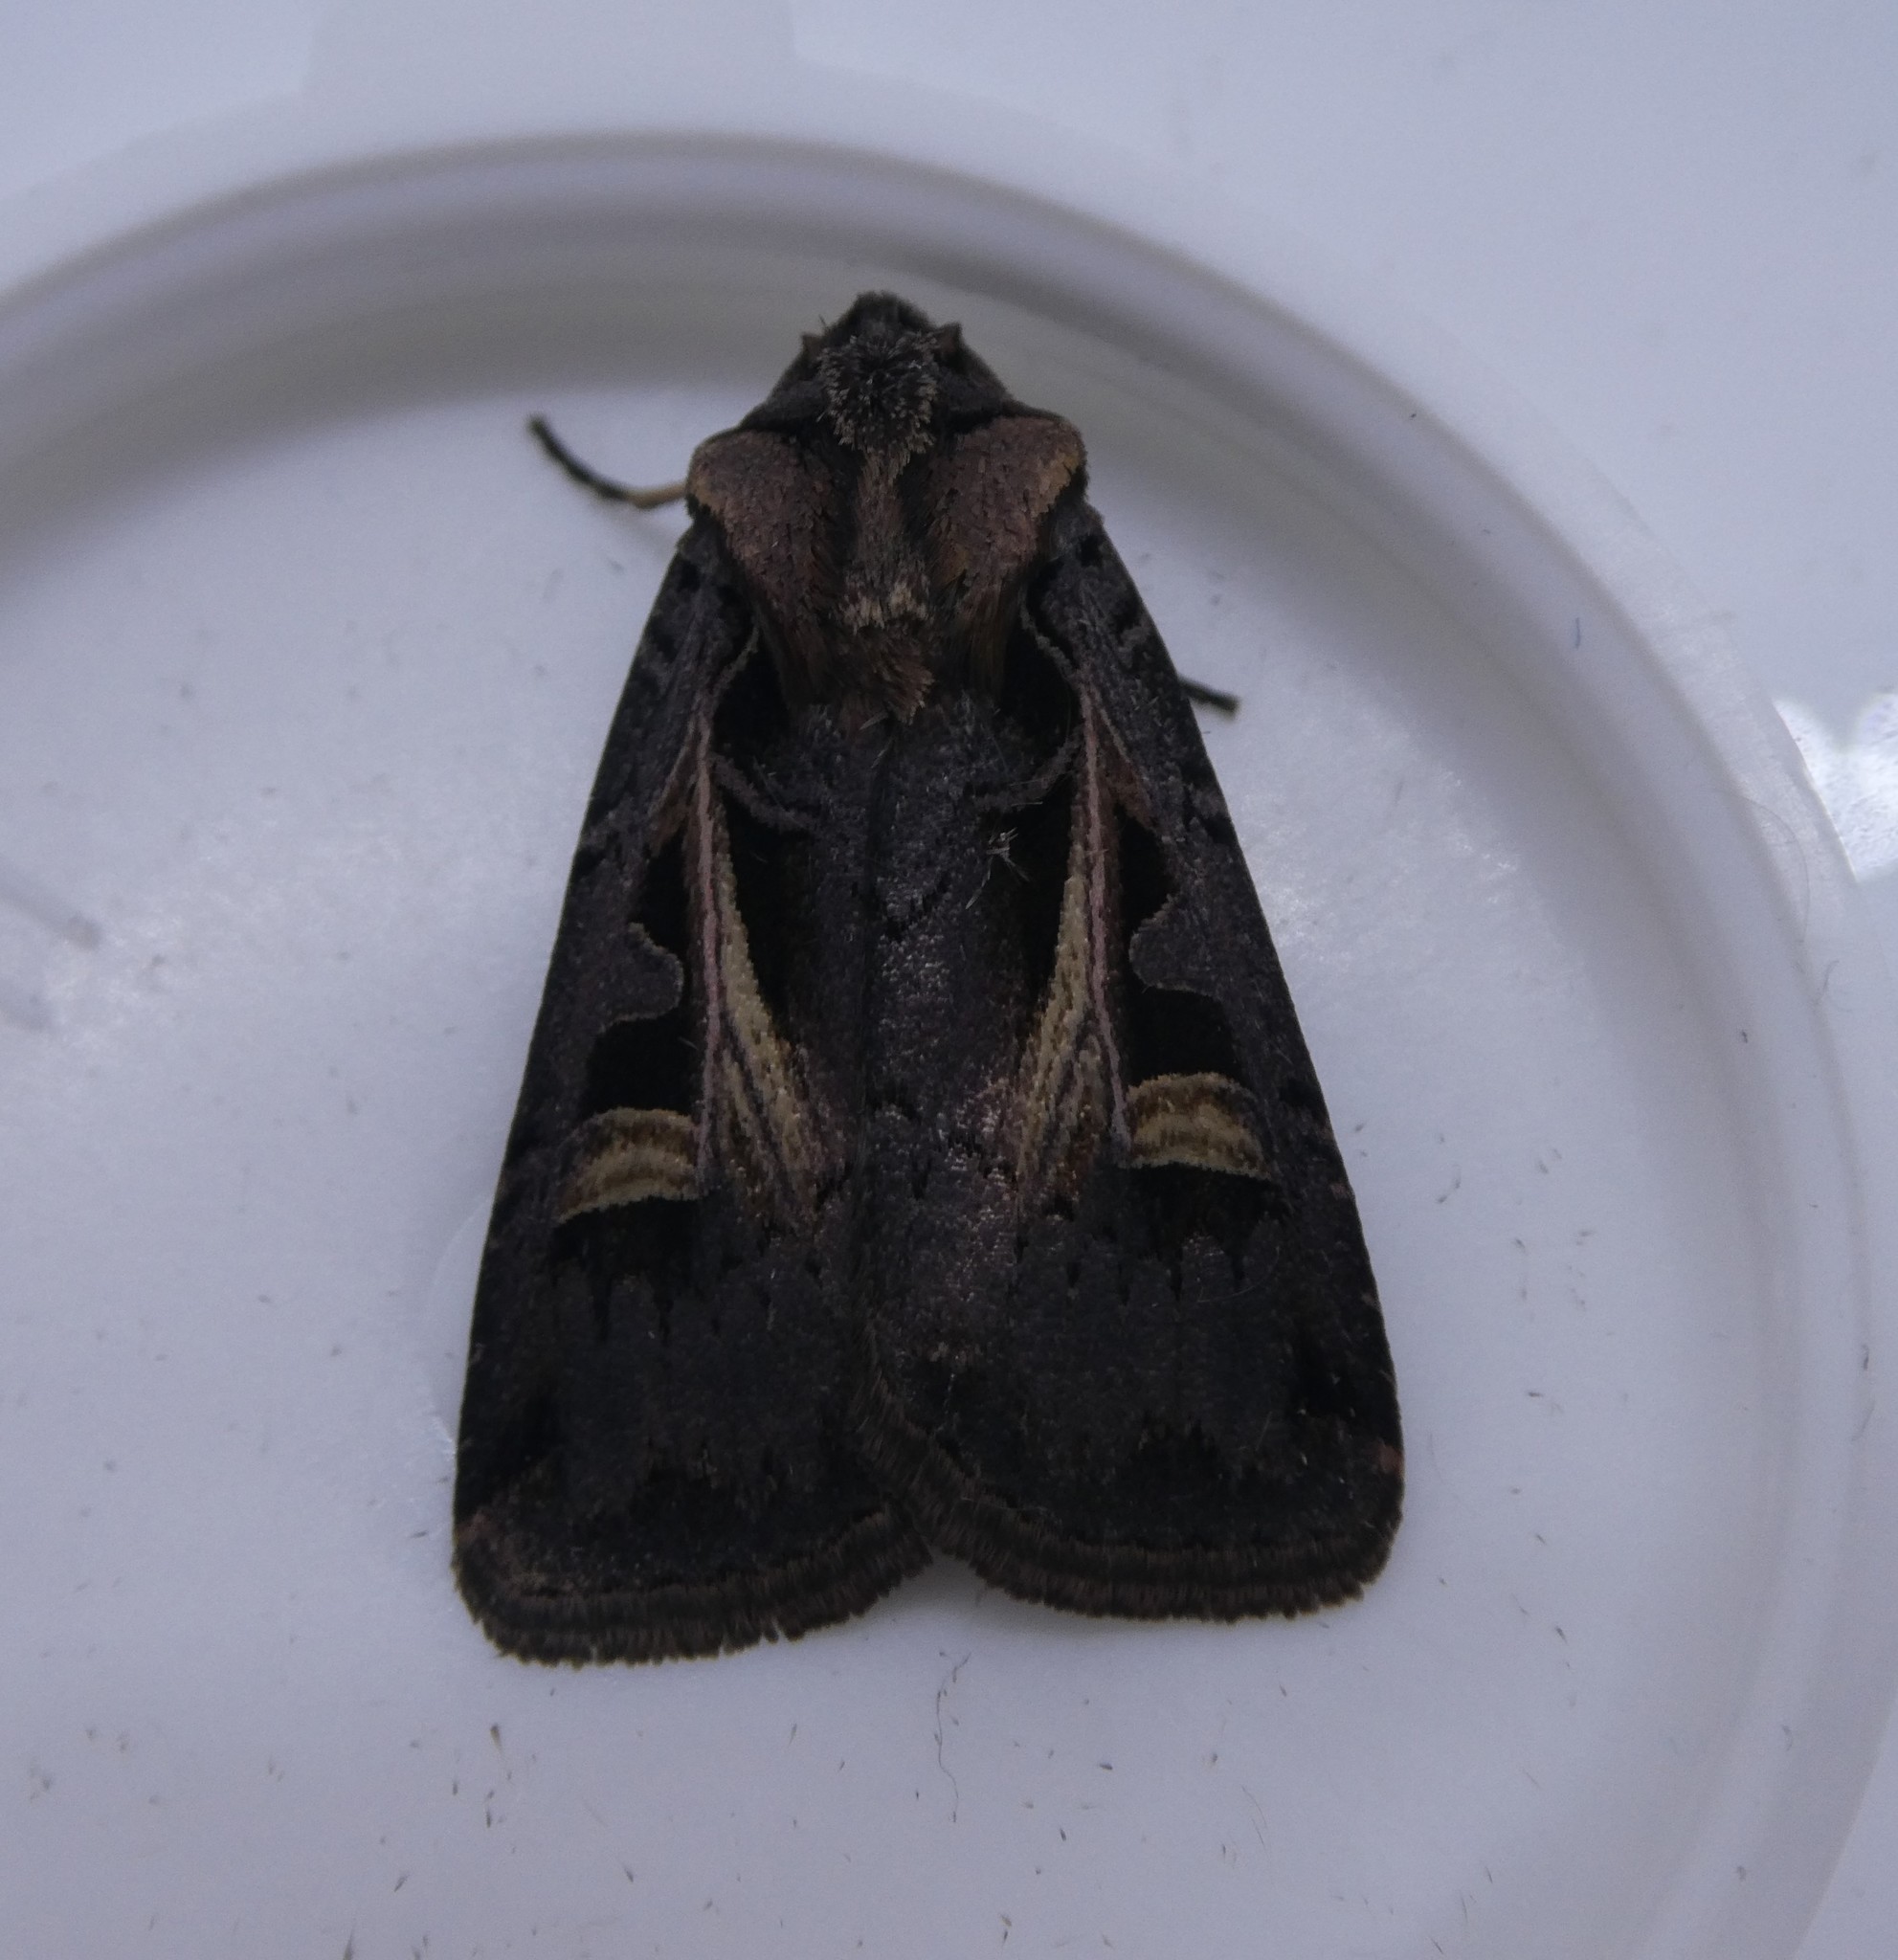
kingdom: Animalia
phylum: Arthropoda
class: Insecta
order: Lepidoptera
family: Noctuidae
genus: Feltia
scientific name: Feltia herilis
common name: Master's dart
